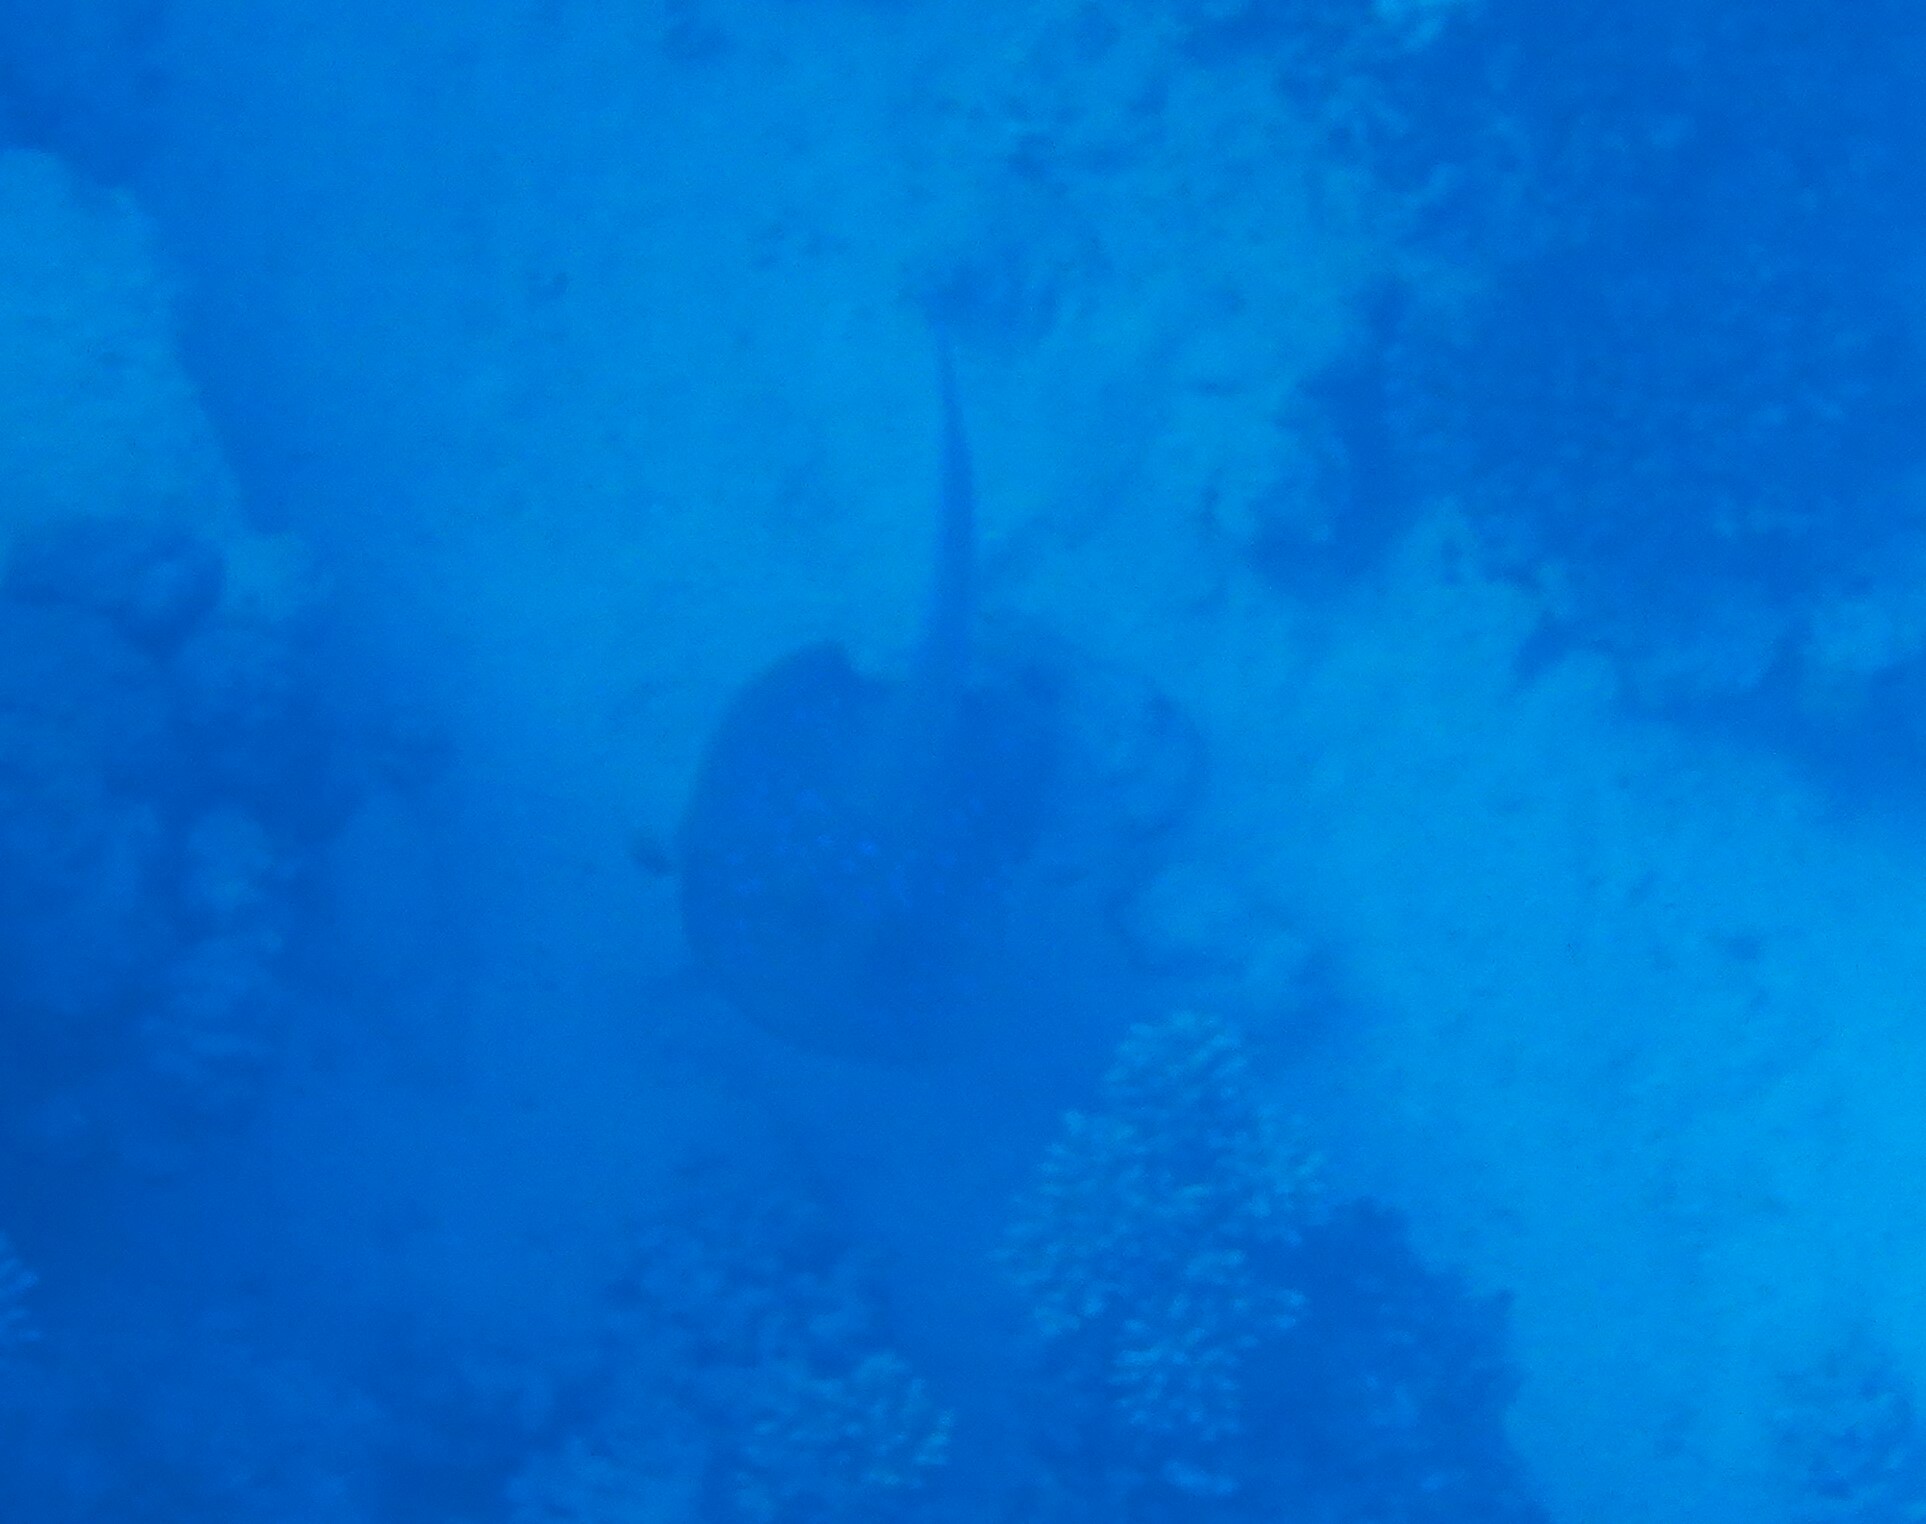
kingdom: Animalia
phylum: Chordata
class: Elasmobranchii
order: Myliobatiformes
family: Dasyatidae
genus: Taeniura
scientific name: Taeniura lymma
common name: Bluespotted ribbontail ray
